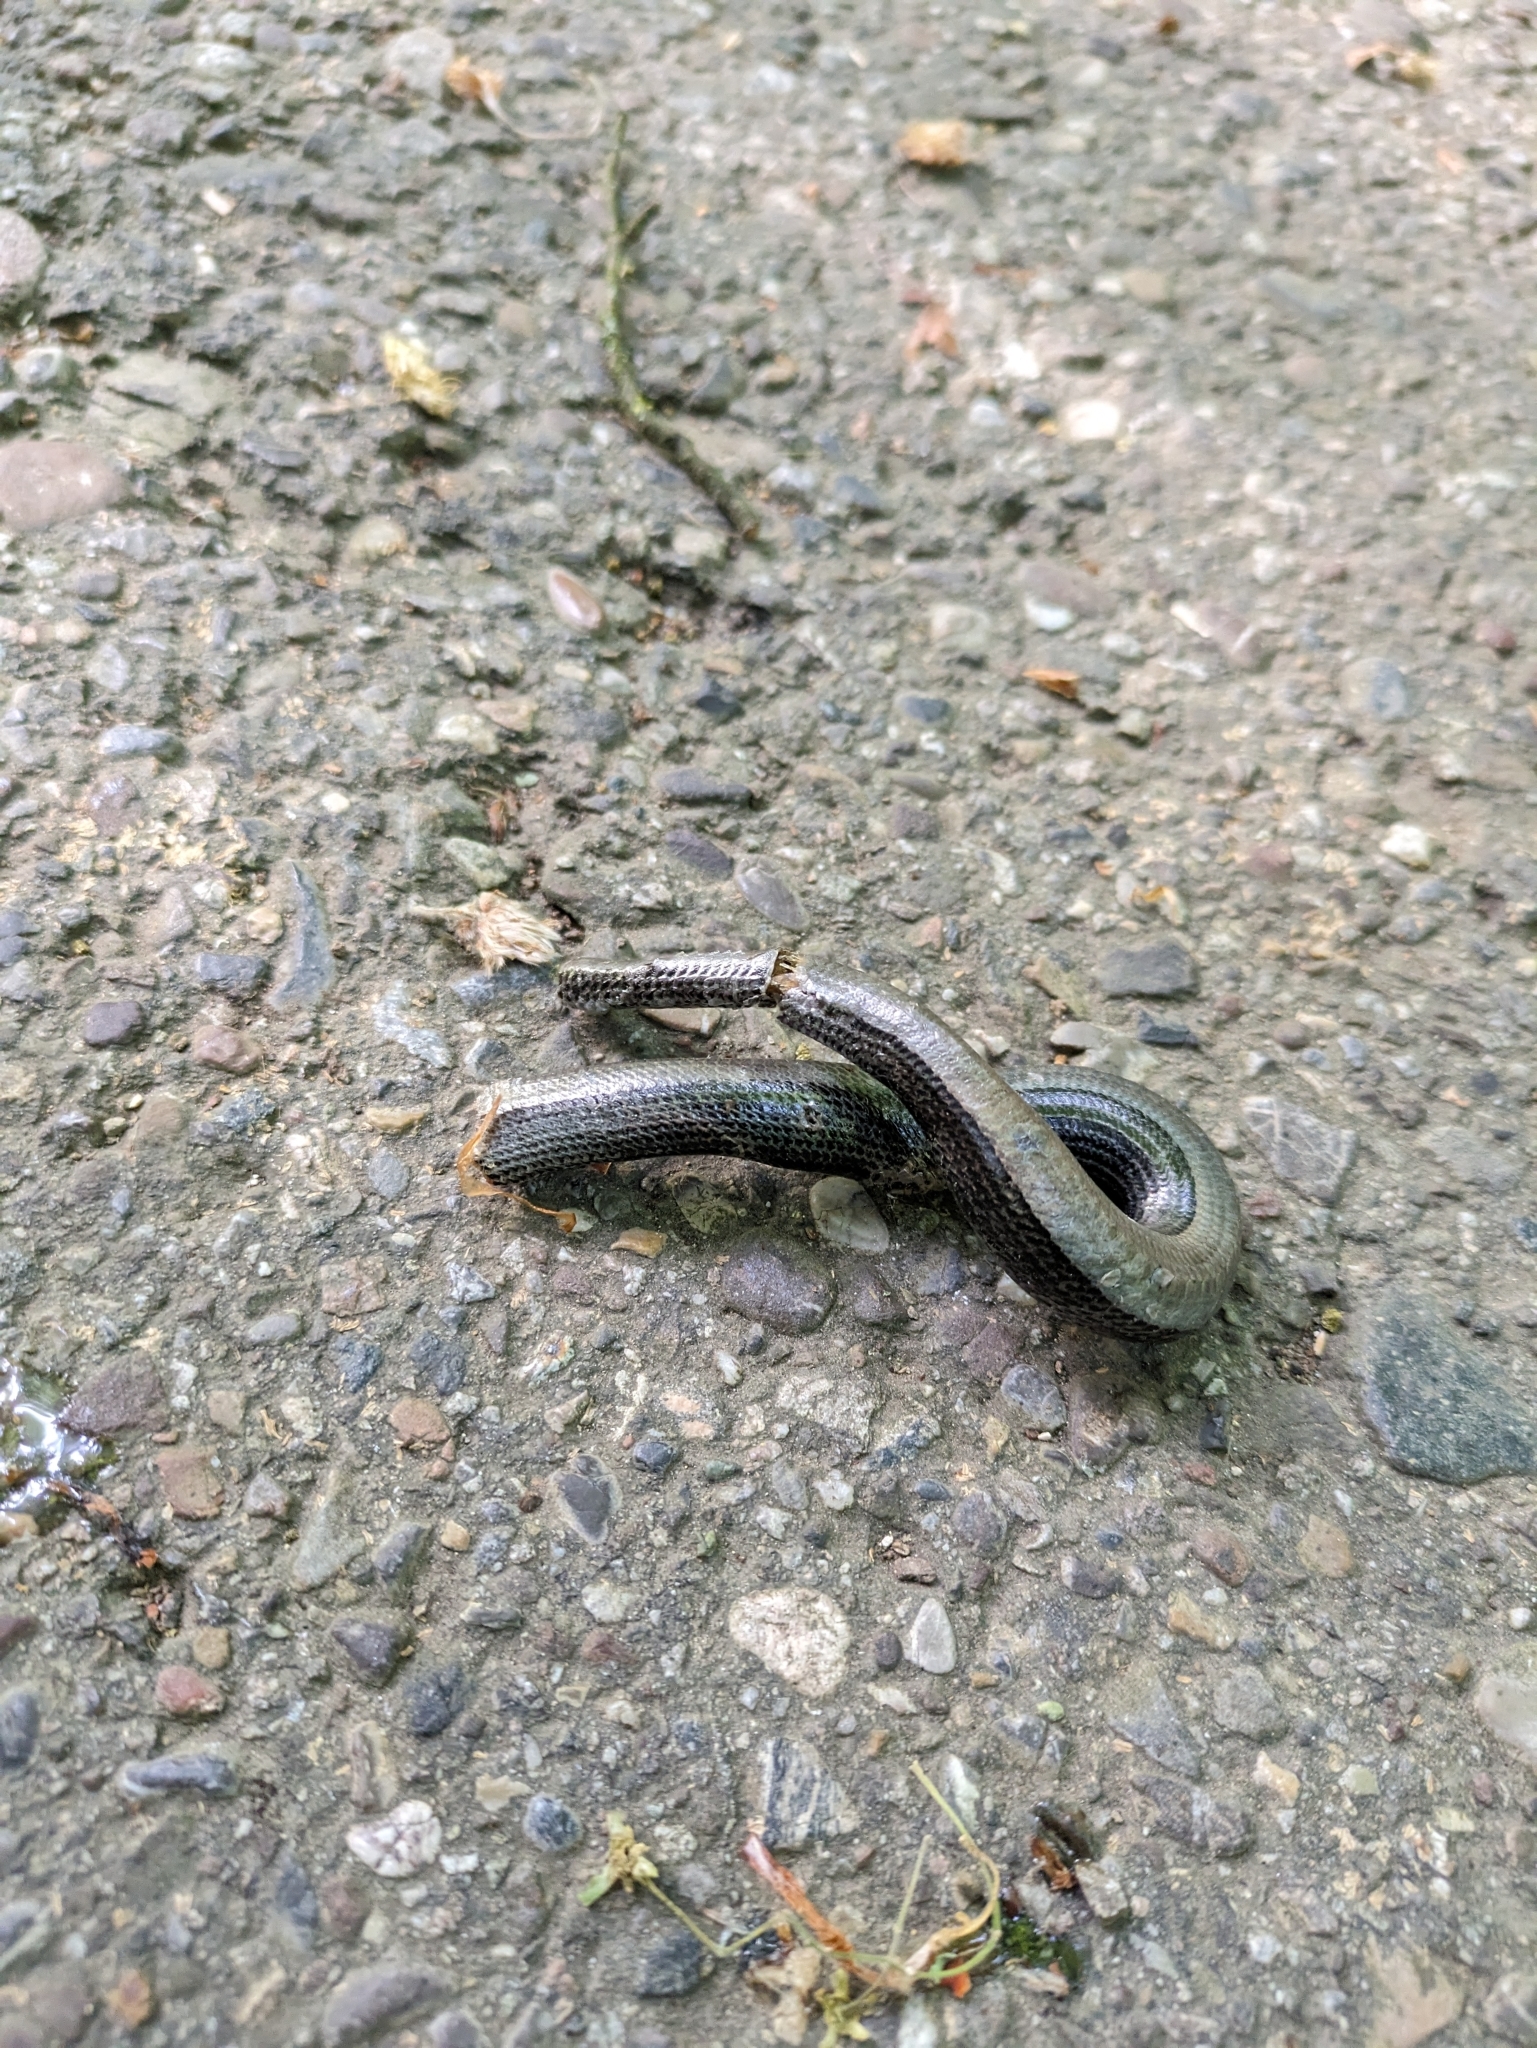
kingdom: Animalia
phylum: Chordata
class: Squamata
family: Anguidae
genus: Anguis
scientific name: Anguis fragilis
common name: Slow worm
